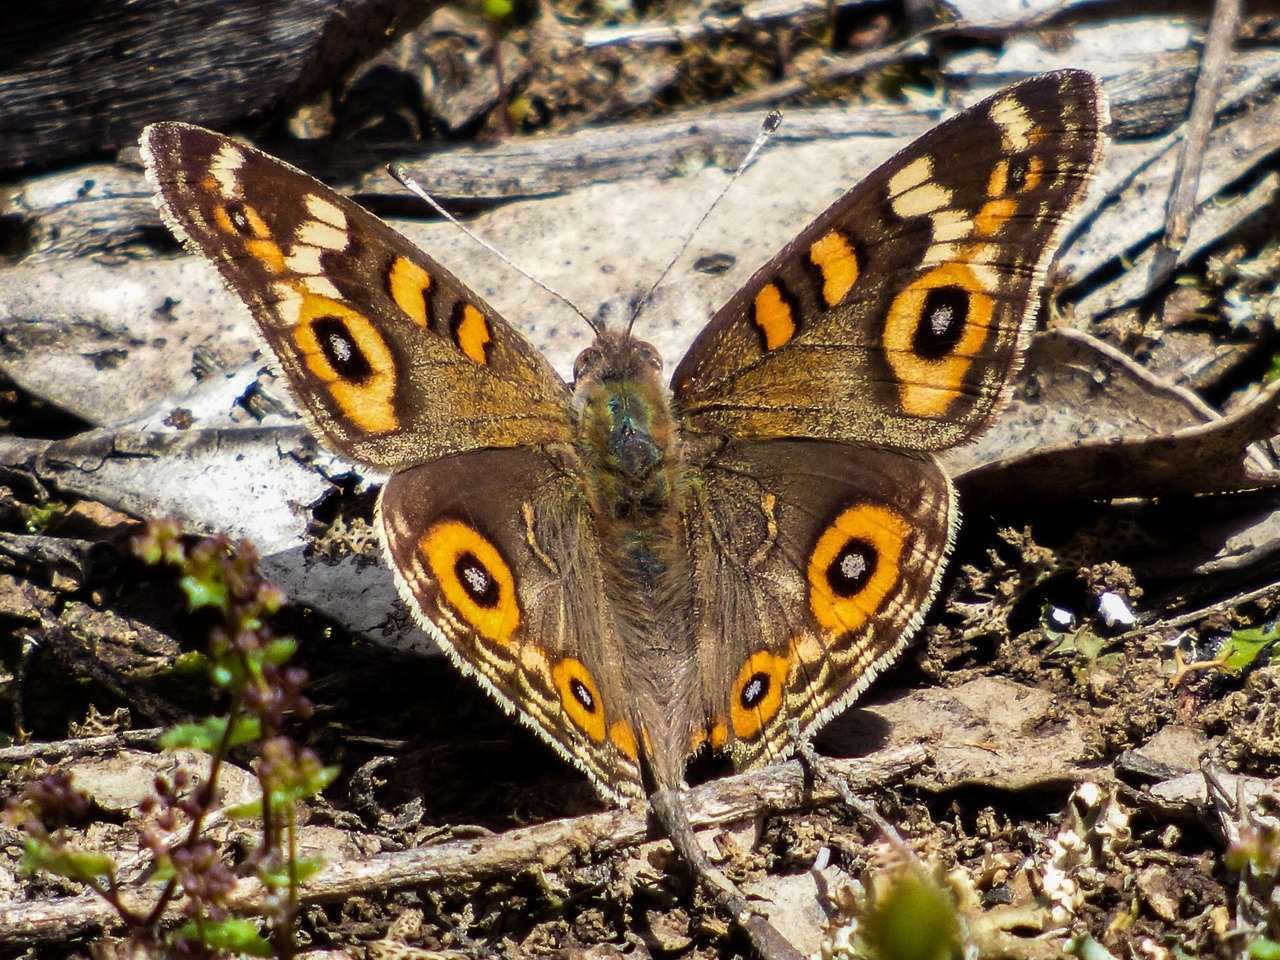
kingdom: Animalia
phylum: Arthropoda
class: Insecta
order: Lepidoptera
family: Nymphalidae
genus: Junonia
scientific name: Junonia villida
